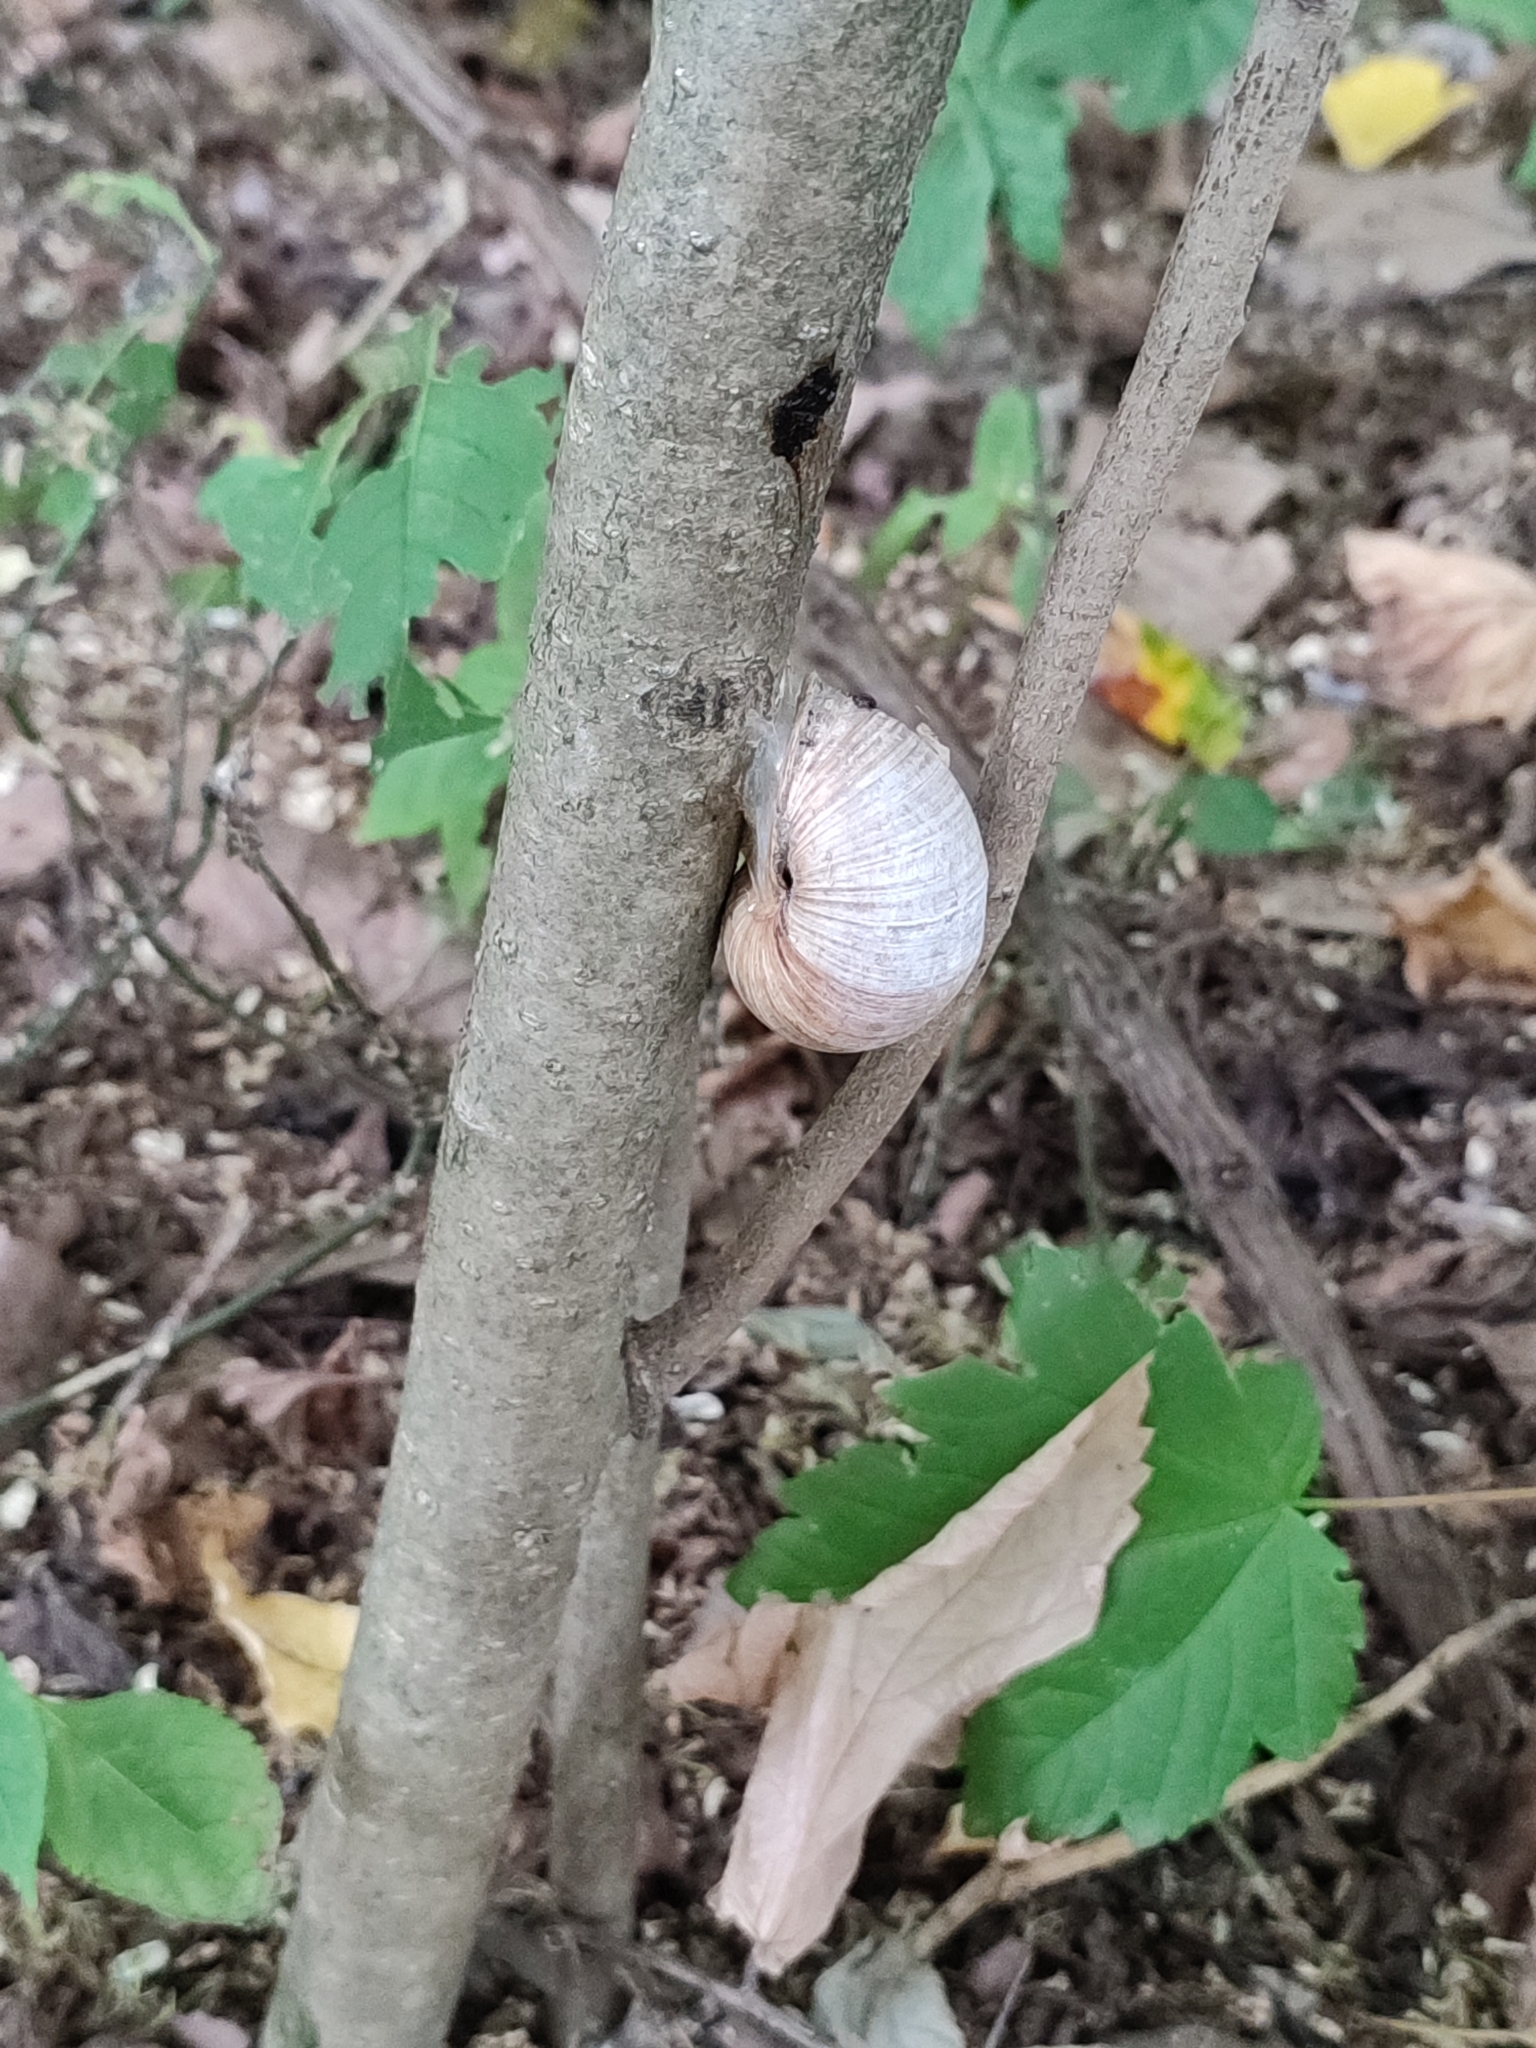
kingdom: Animalia
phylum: Mollusca
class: Gastropoda
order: Stylommatophora
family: Helicidae
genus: Helix
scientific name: Helix pomatia
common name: Roman snail
